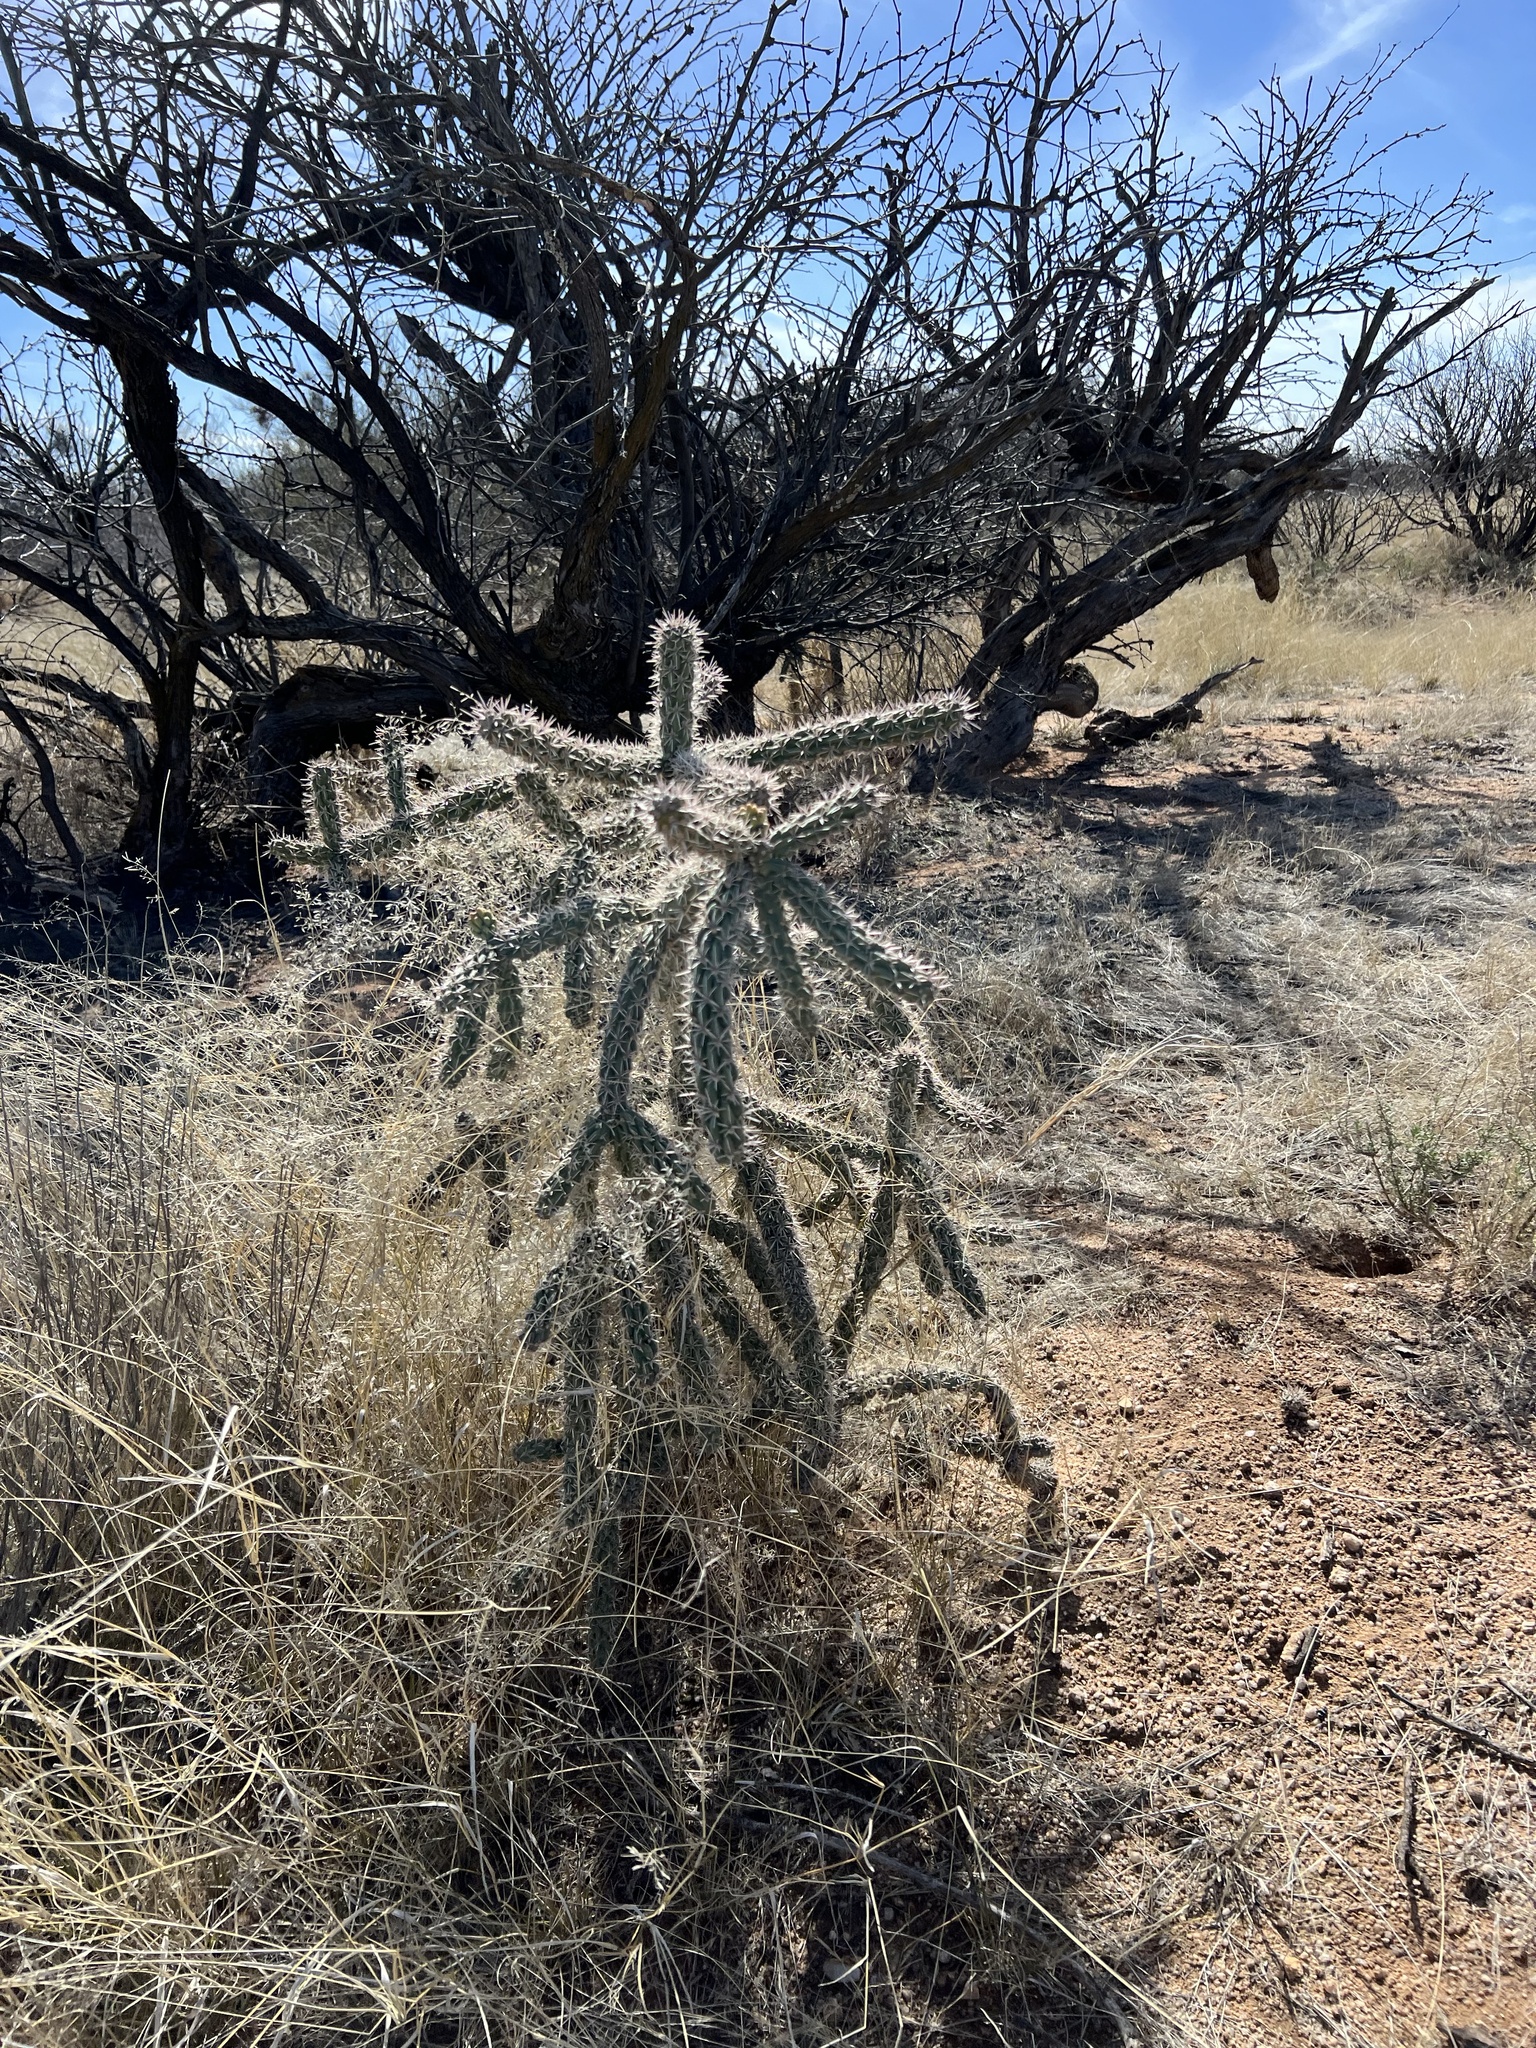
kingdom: Plantae
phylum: Tracheophyta
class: Magnoliopsida
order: Caryophyllales
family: Cactaceae
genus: Cylindropuntia
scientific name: Cylindropuntia imbricata
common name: Candelabrum cactus
